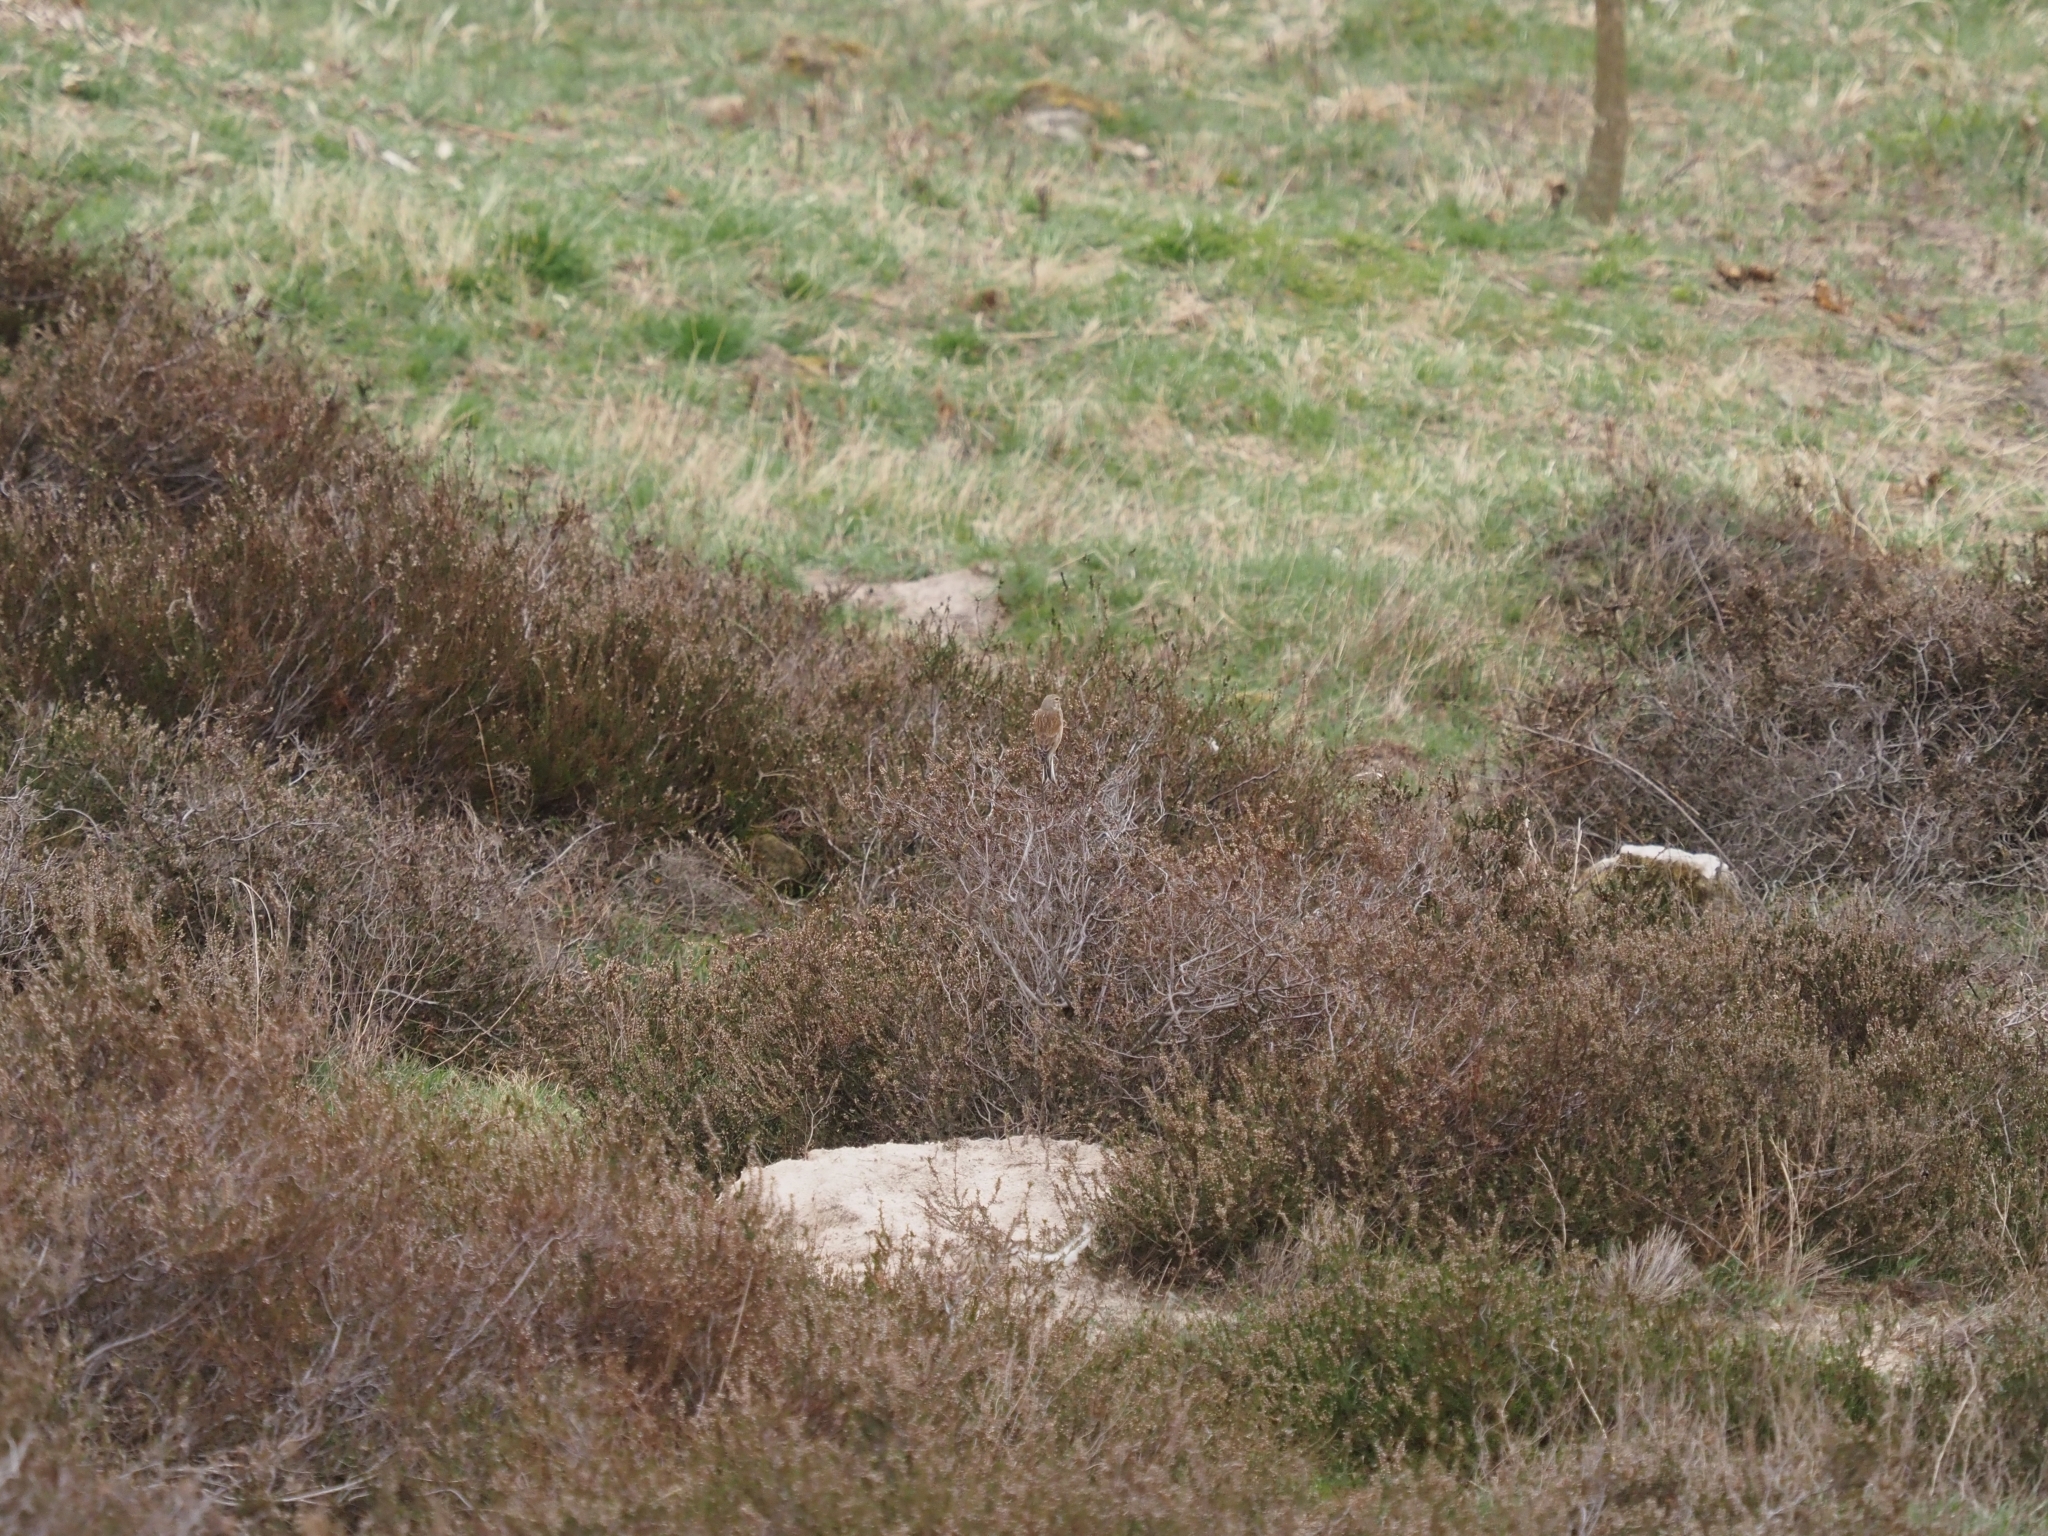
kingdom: Animalia
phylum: Chordata
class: Aves
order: Passeriformes
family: Fringillidae
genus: Linaria
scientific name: Linaria cannabina
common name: Common linnet
